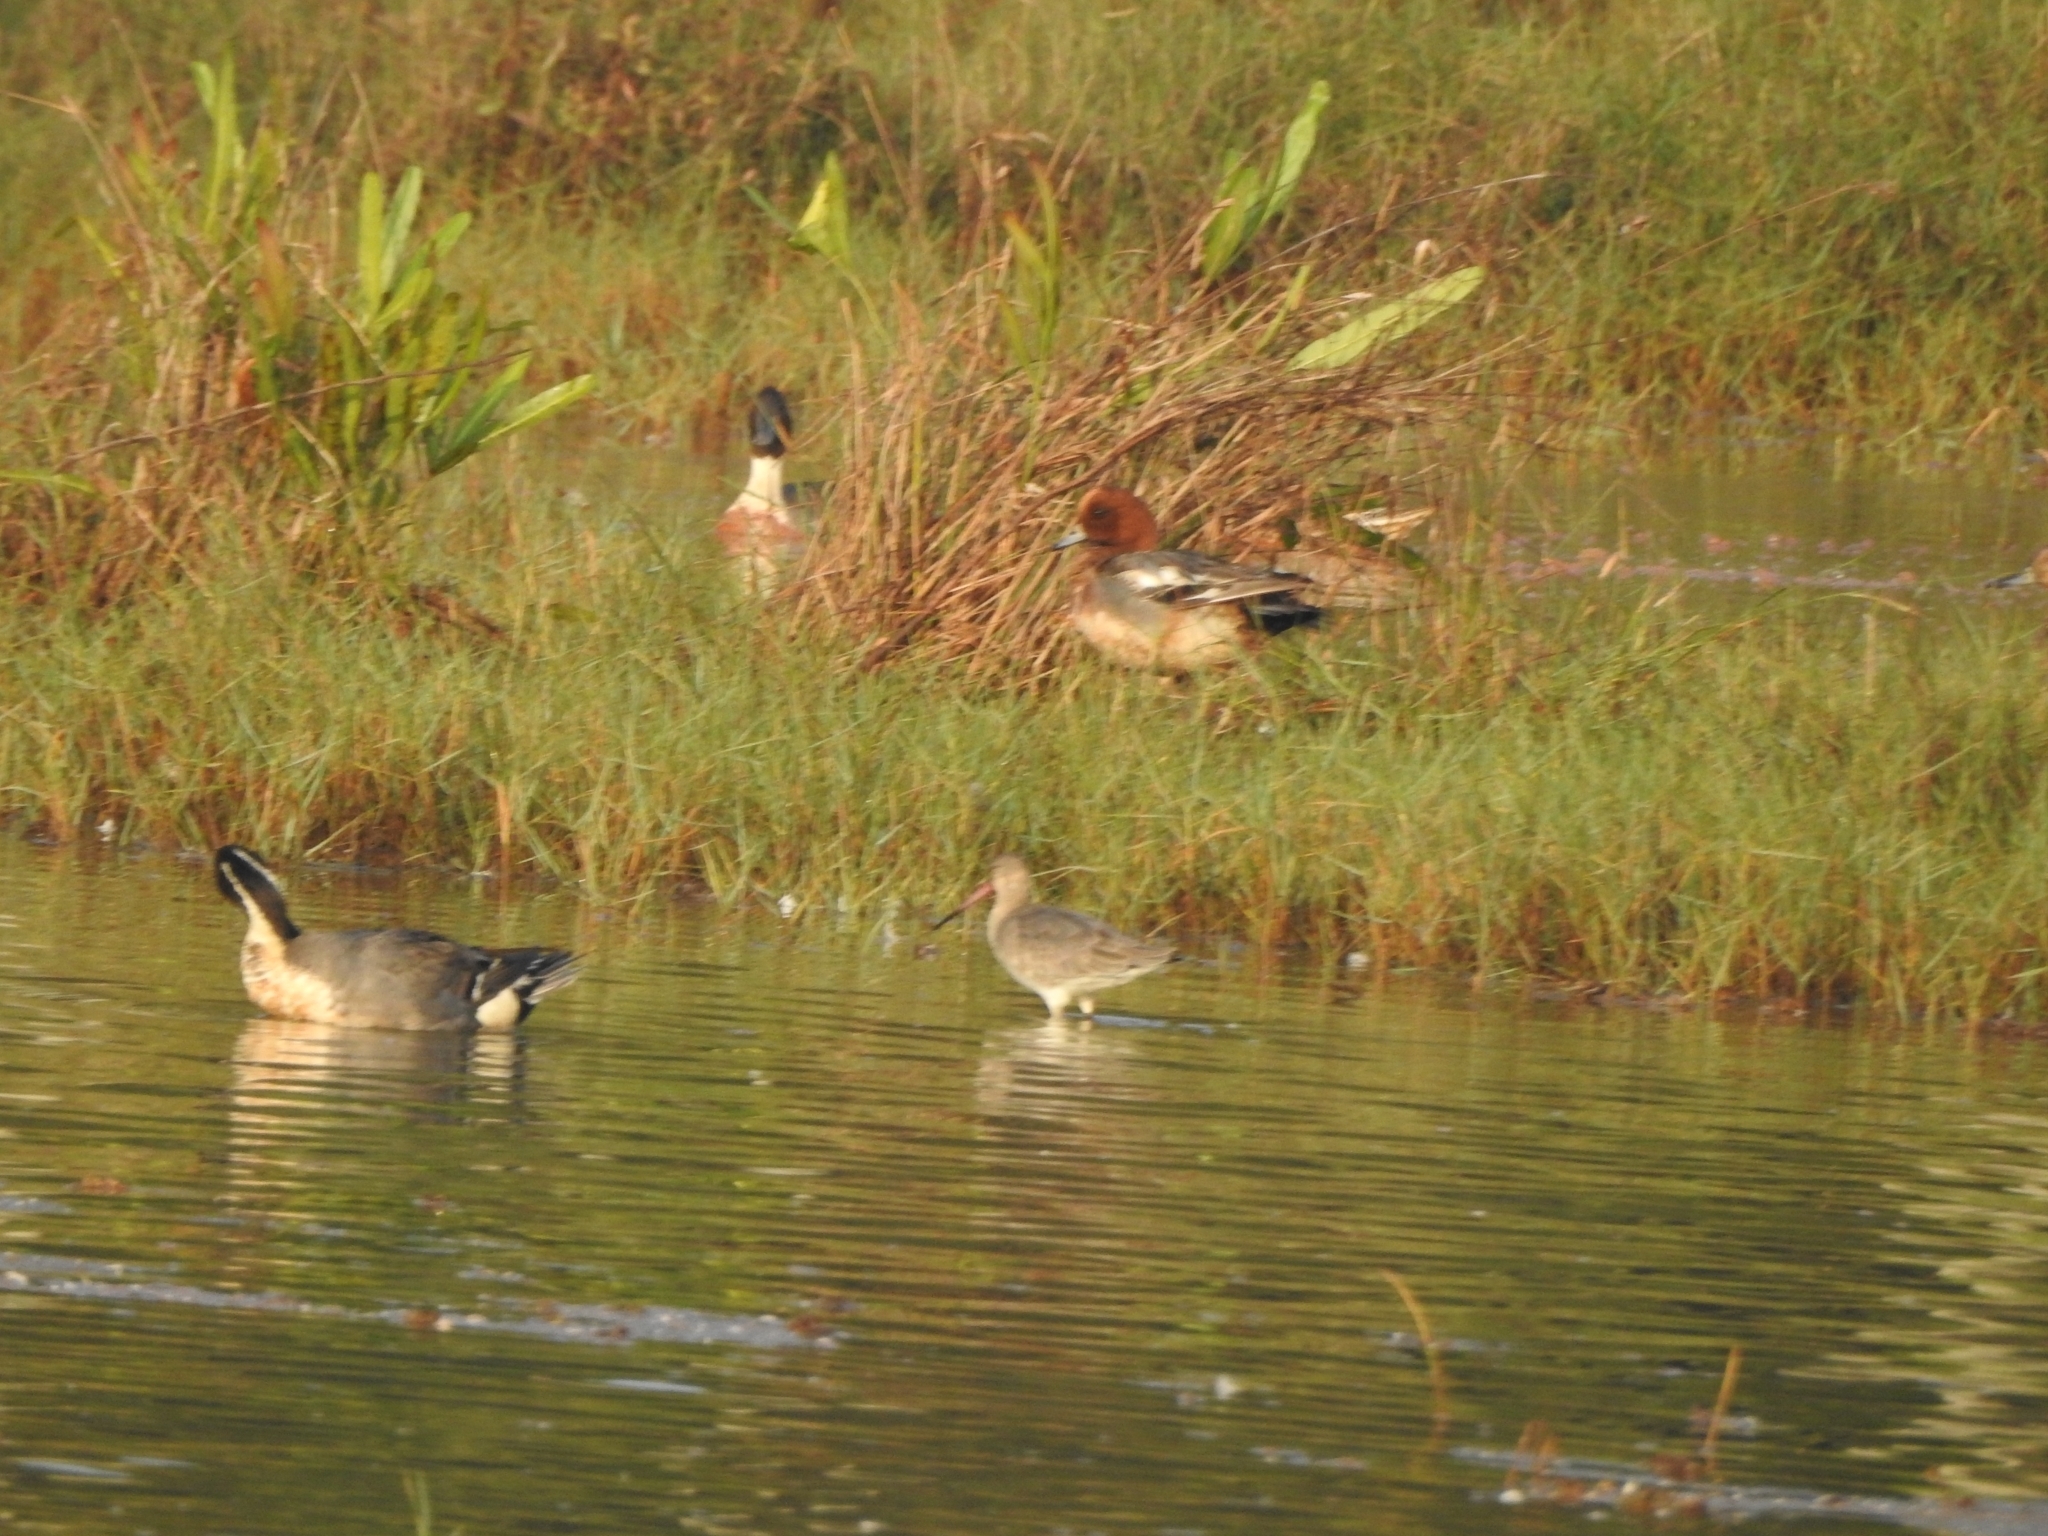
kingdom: Animalia
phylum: Chordata
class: Aves
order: Charadriiformes
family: Scolopacidae
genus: Limosa
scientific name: Limosa limosa
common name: Black-tailed godwit
